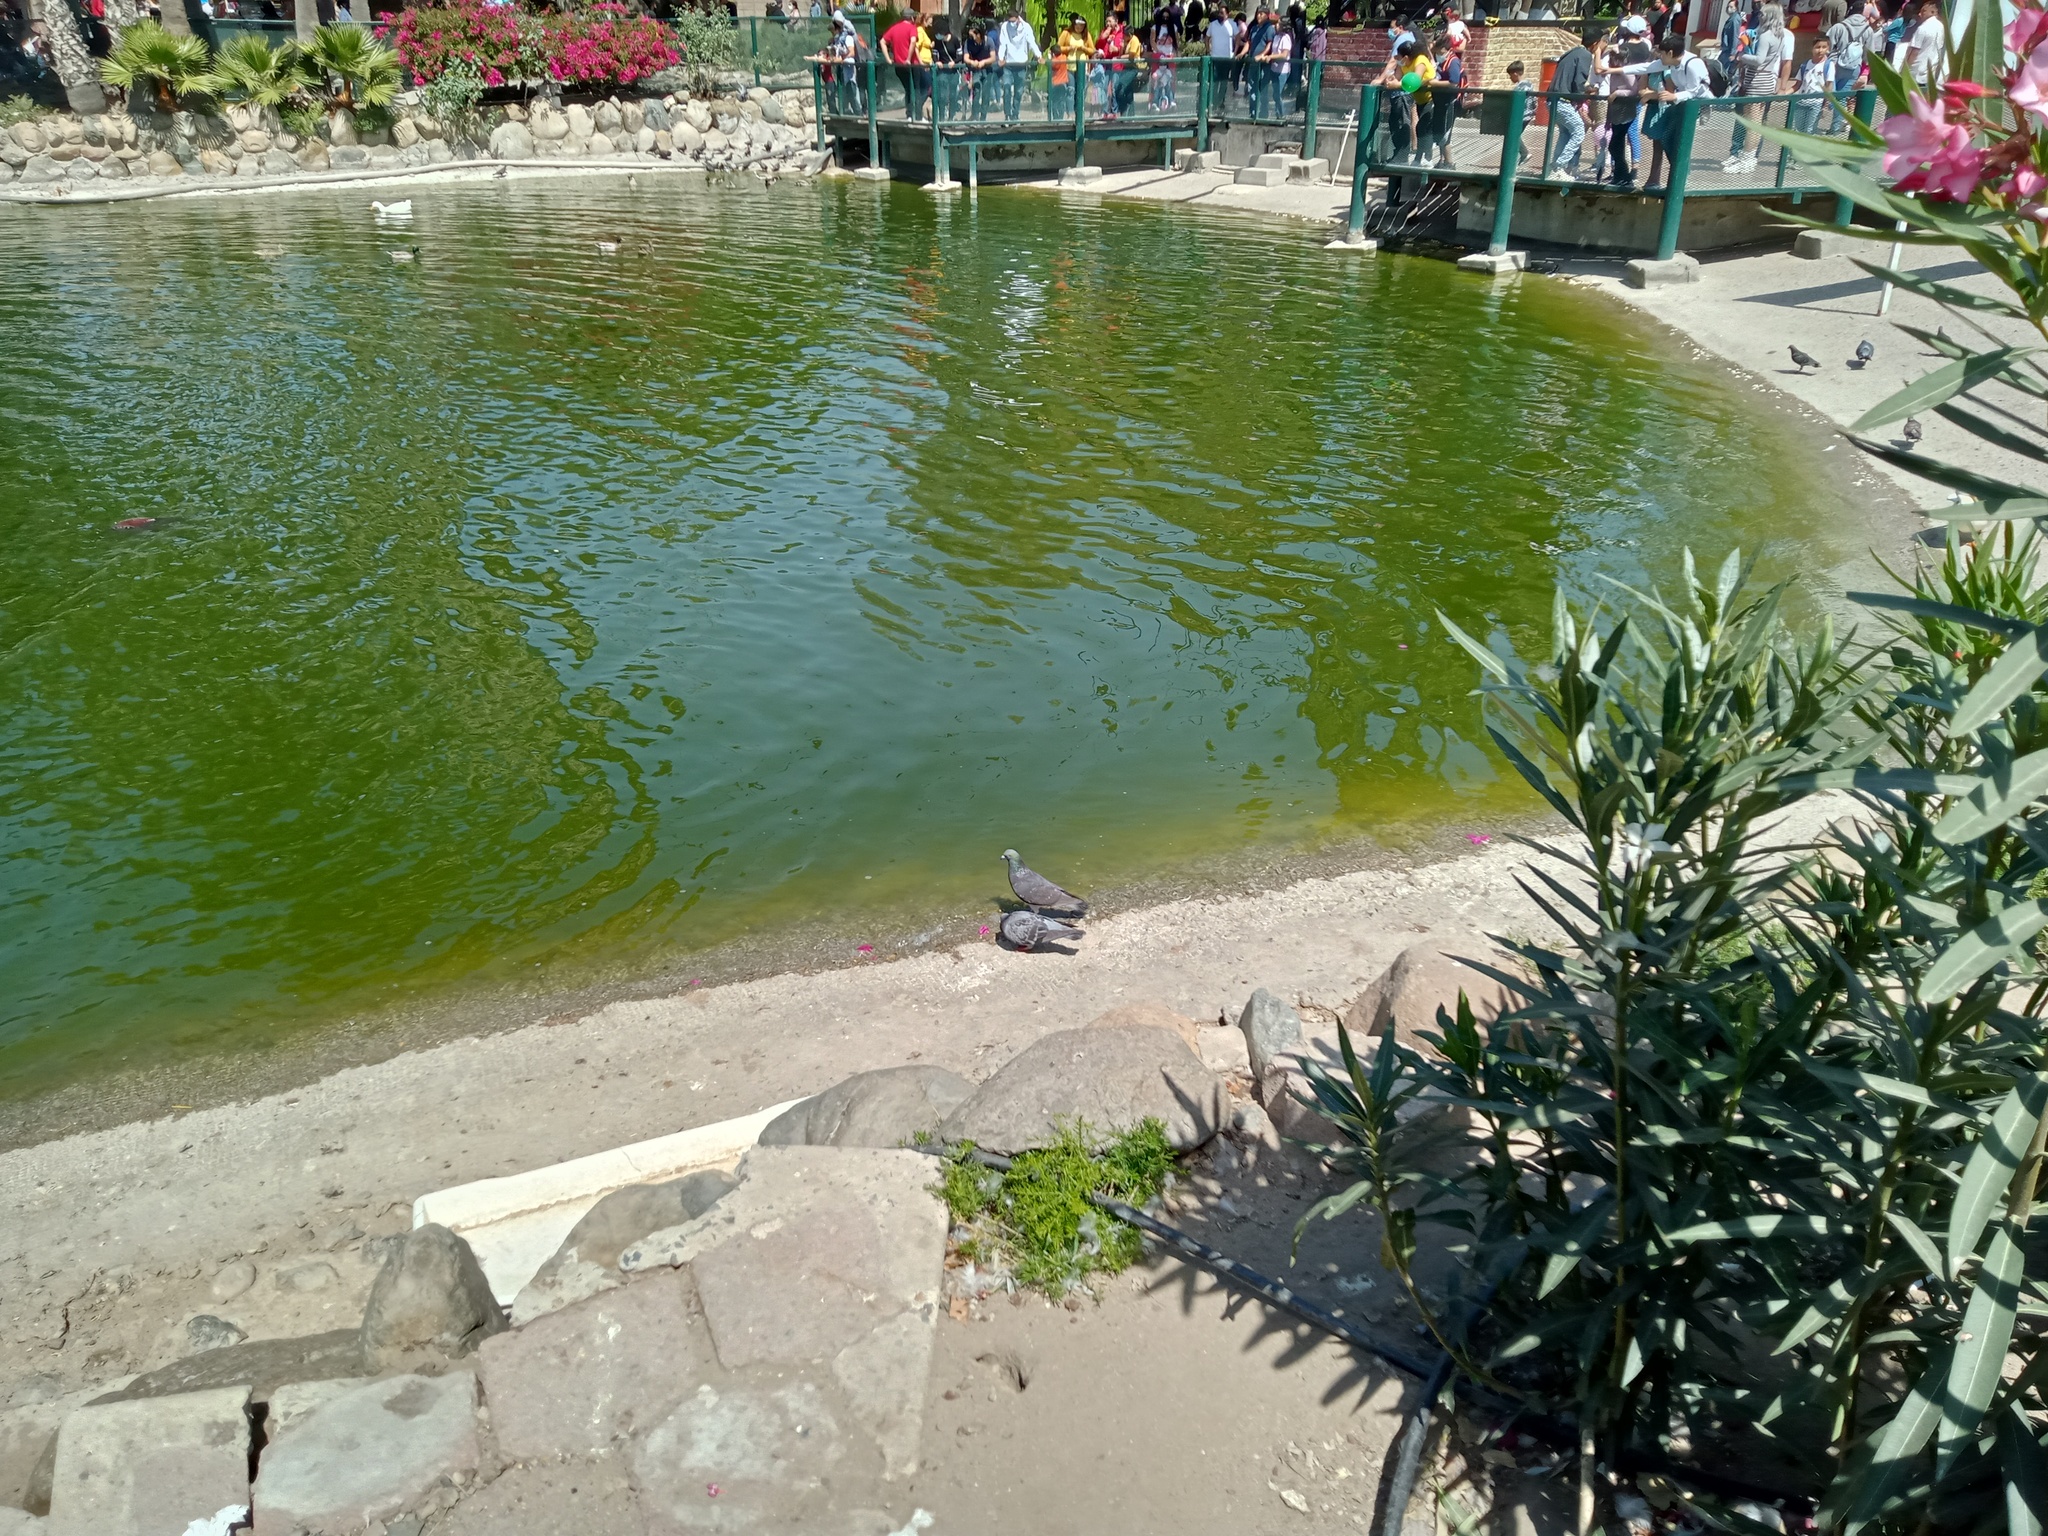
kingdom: Animalia
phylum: Chordata
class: Aves
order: Columbiformes
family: Columbidae
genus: Columba
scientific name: Columba livia
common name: Rock pigeon
